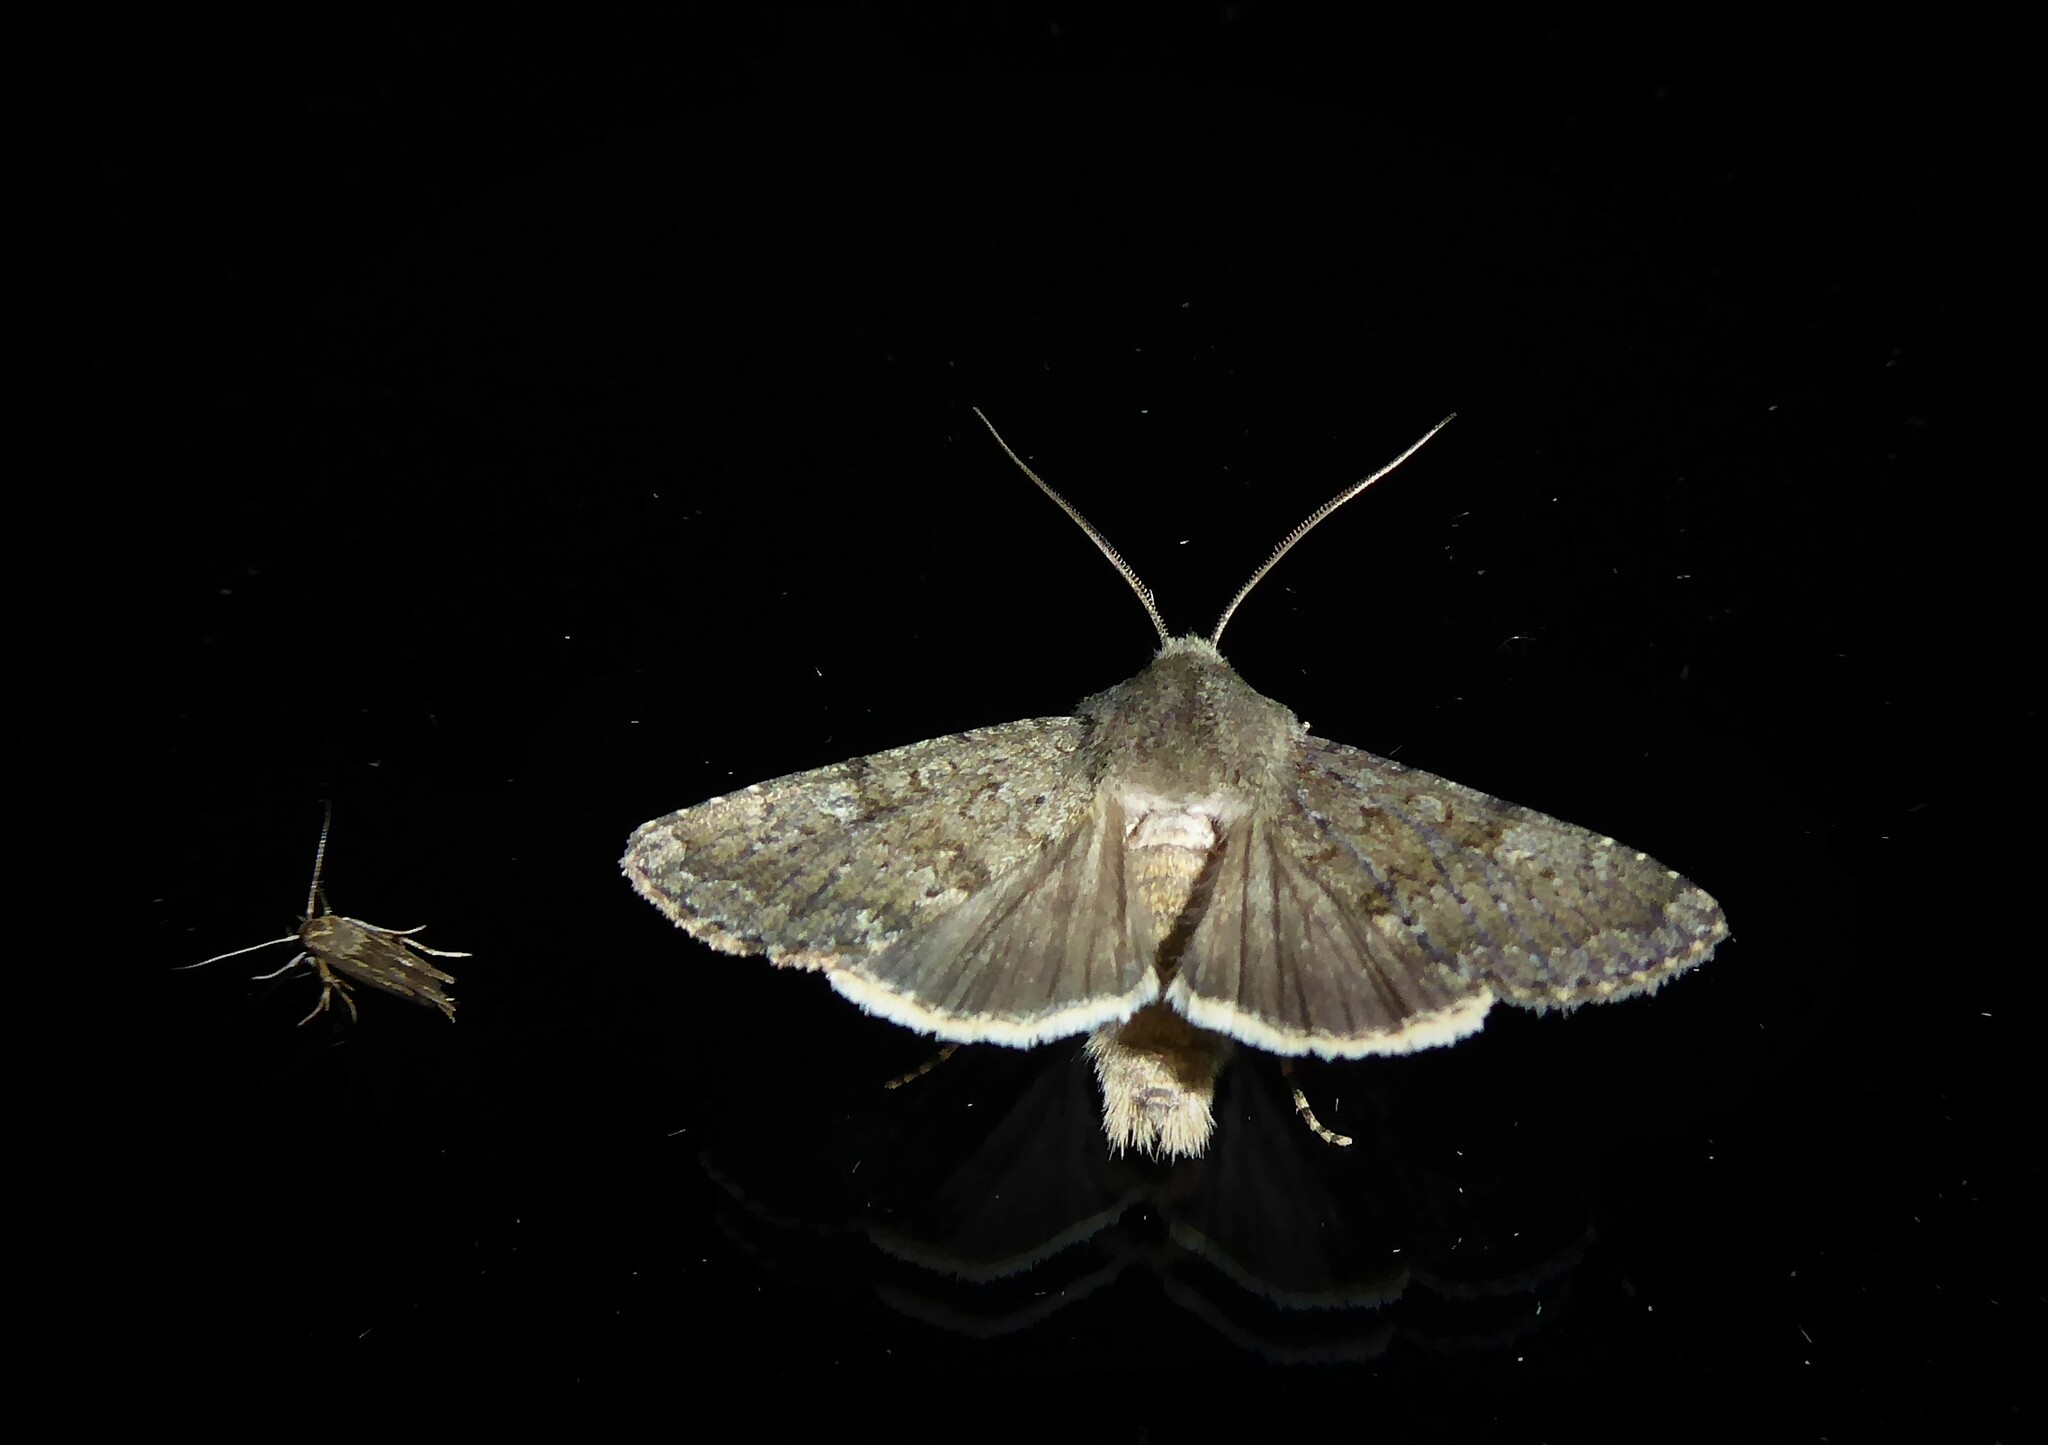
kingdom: Animalia
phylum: Arthropoda
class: Insecta
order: Lepidoptera
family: Noctuidae
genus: Ichneutica
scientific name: Ichneutica moderata
